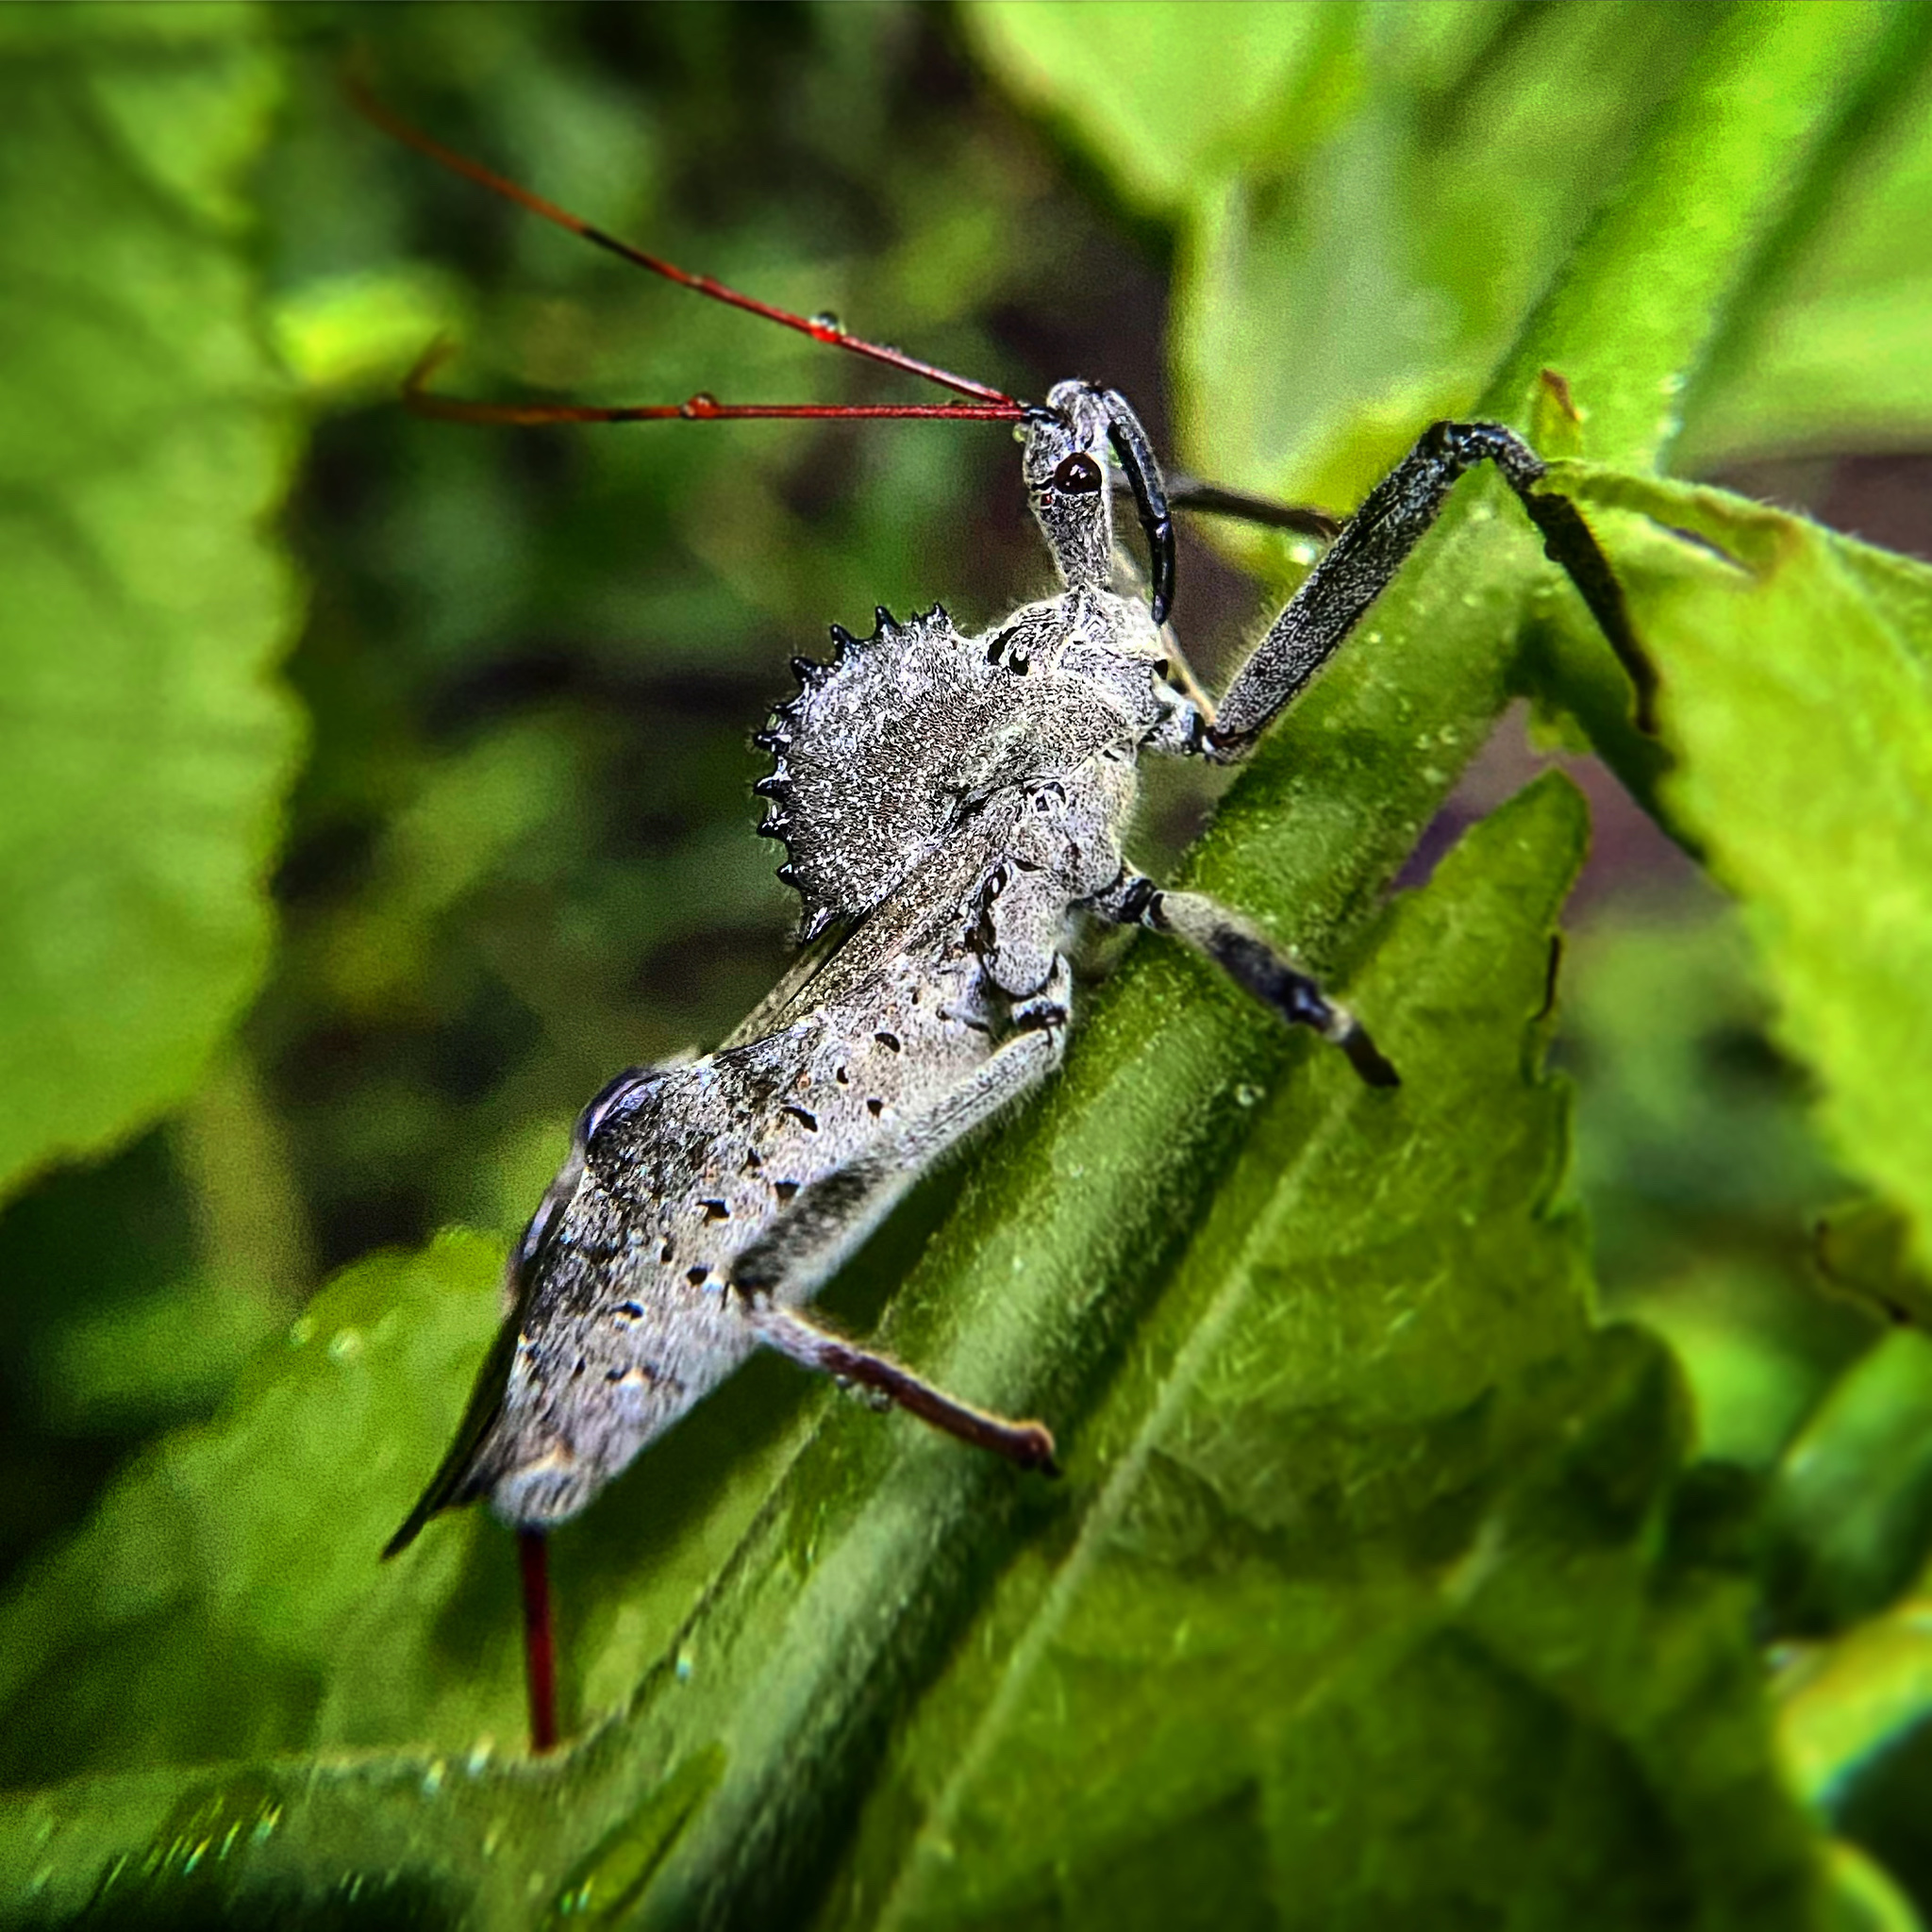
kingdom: Animalia
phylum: Arthropoda
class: Insecta
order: Hemiptera
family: Reduviidae
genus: Arilus
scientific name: Arilus cristatus
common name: North american wheel bug
